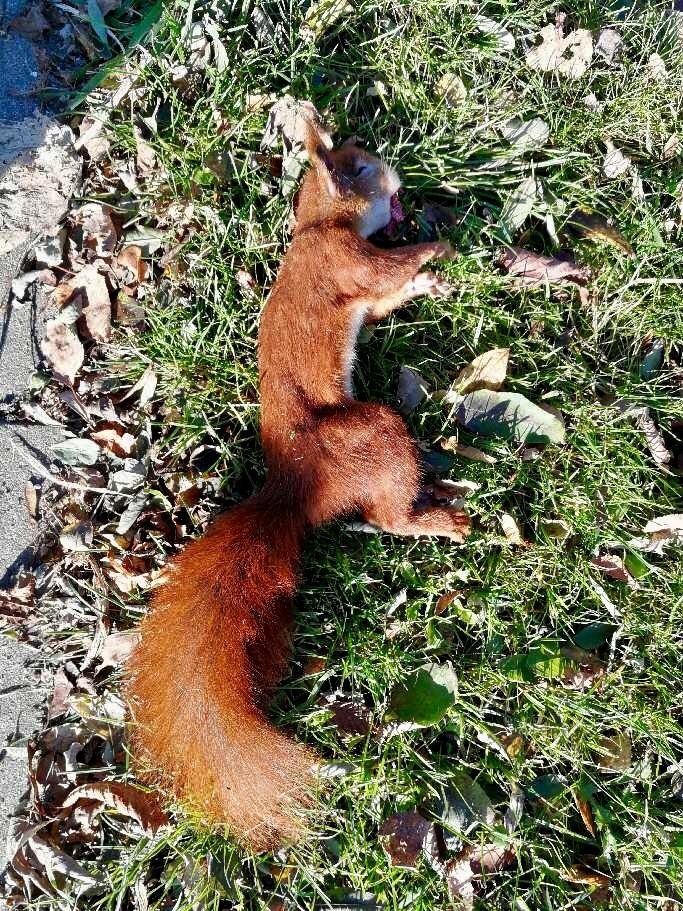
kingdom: Animalia
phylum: Chordata
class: Mammalia
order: Rodentia
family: Sciuridae
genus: Sciurus
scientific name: Sciurus vulgaris
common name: Eurasian red squirrel
